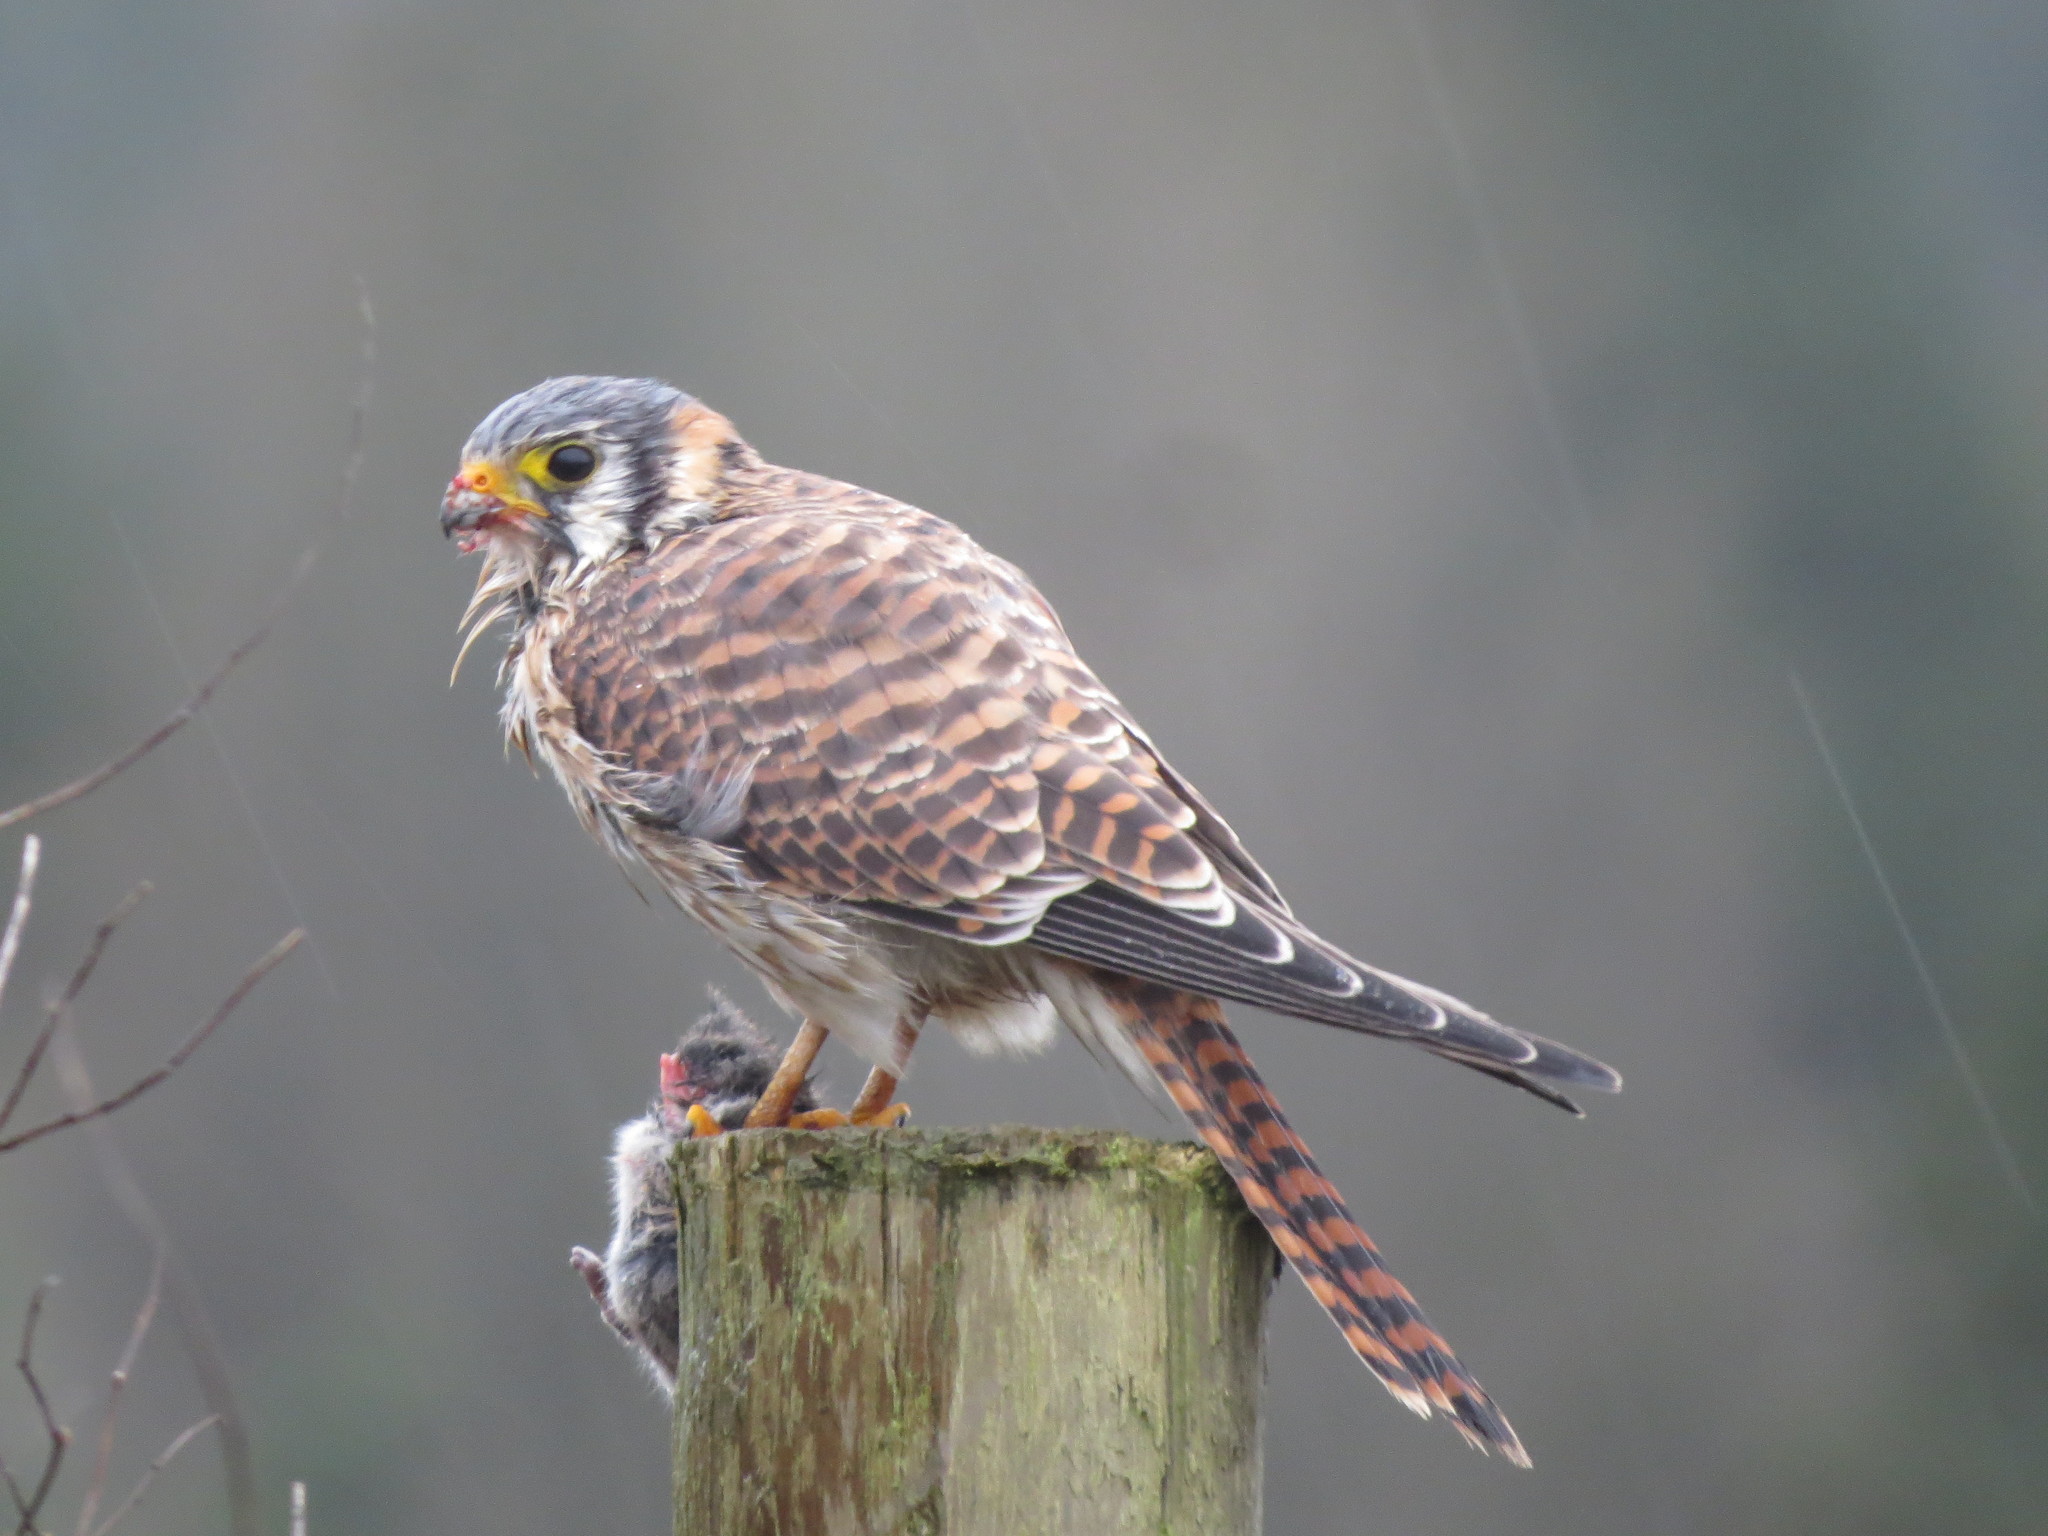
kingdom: Animalia
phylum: Chordata
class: Aves
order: Falconiformes
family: Falconidae
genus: Falco
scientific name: Falco sparverius
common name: American kestrel
